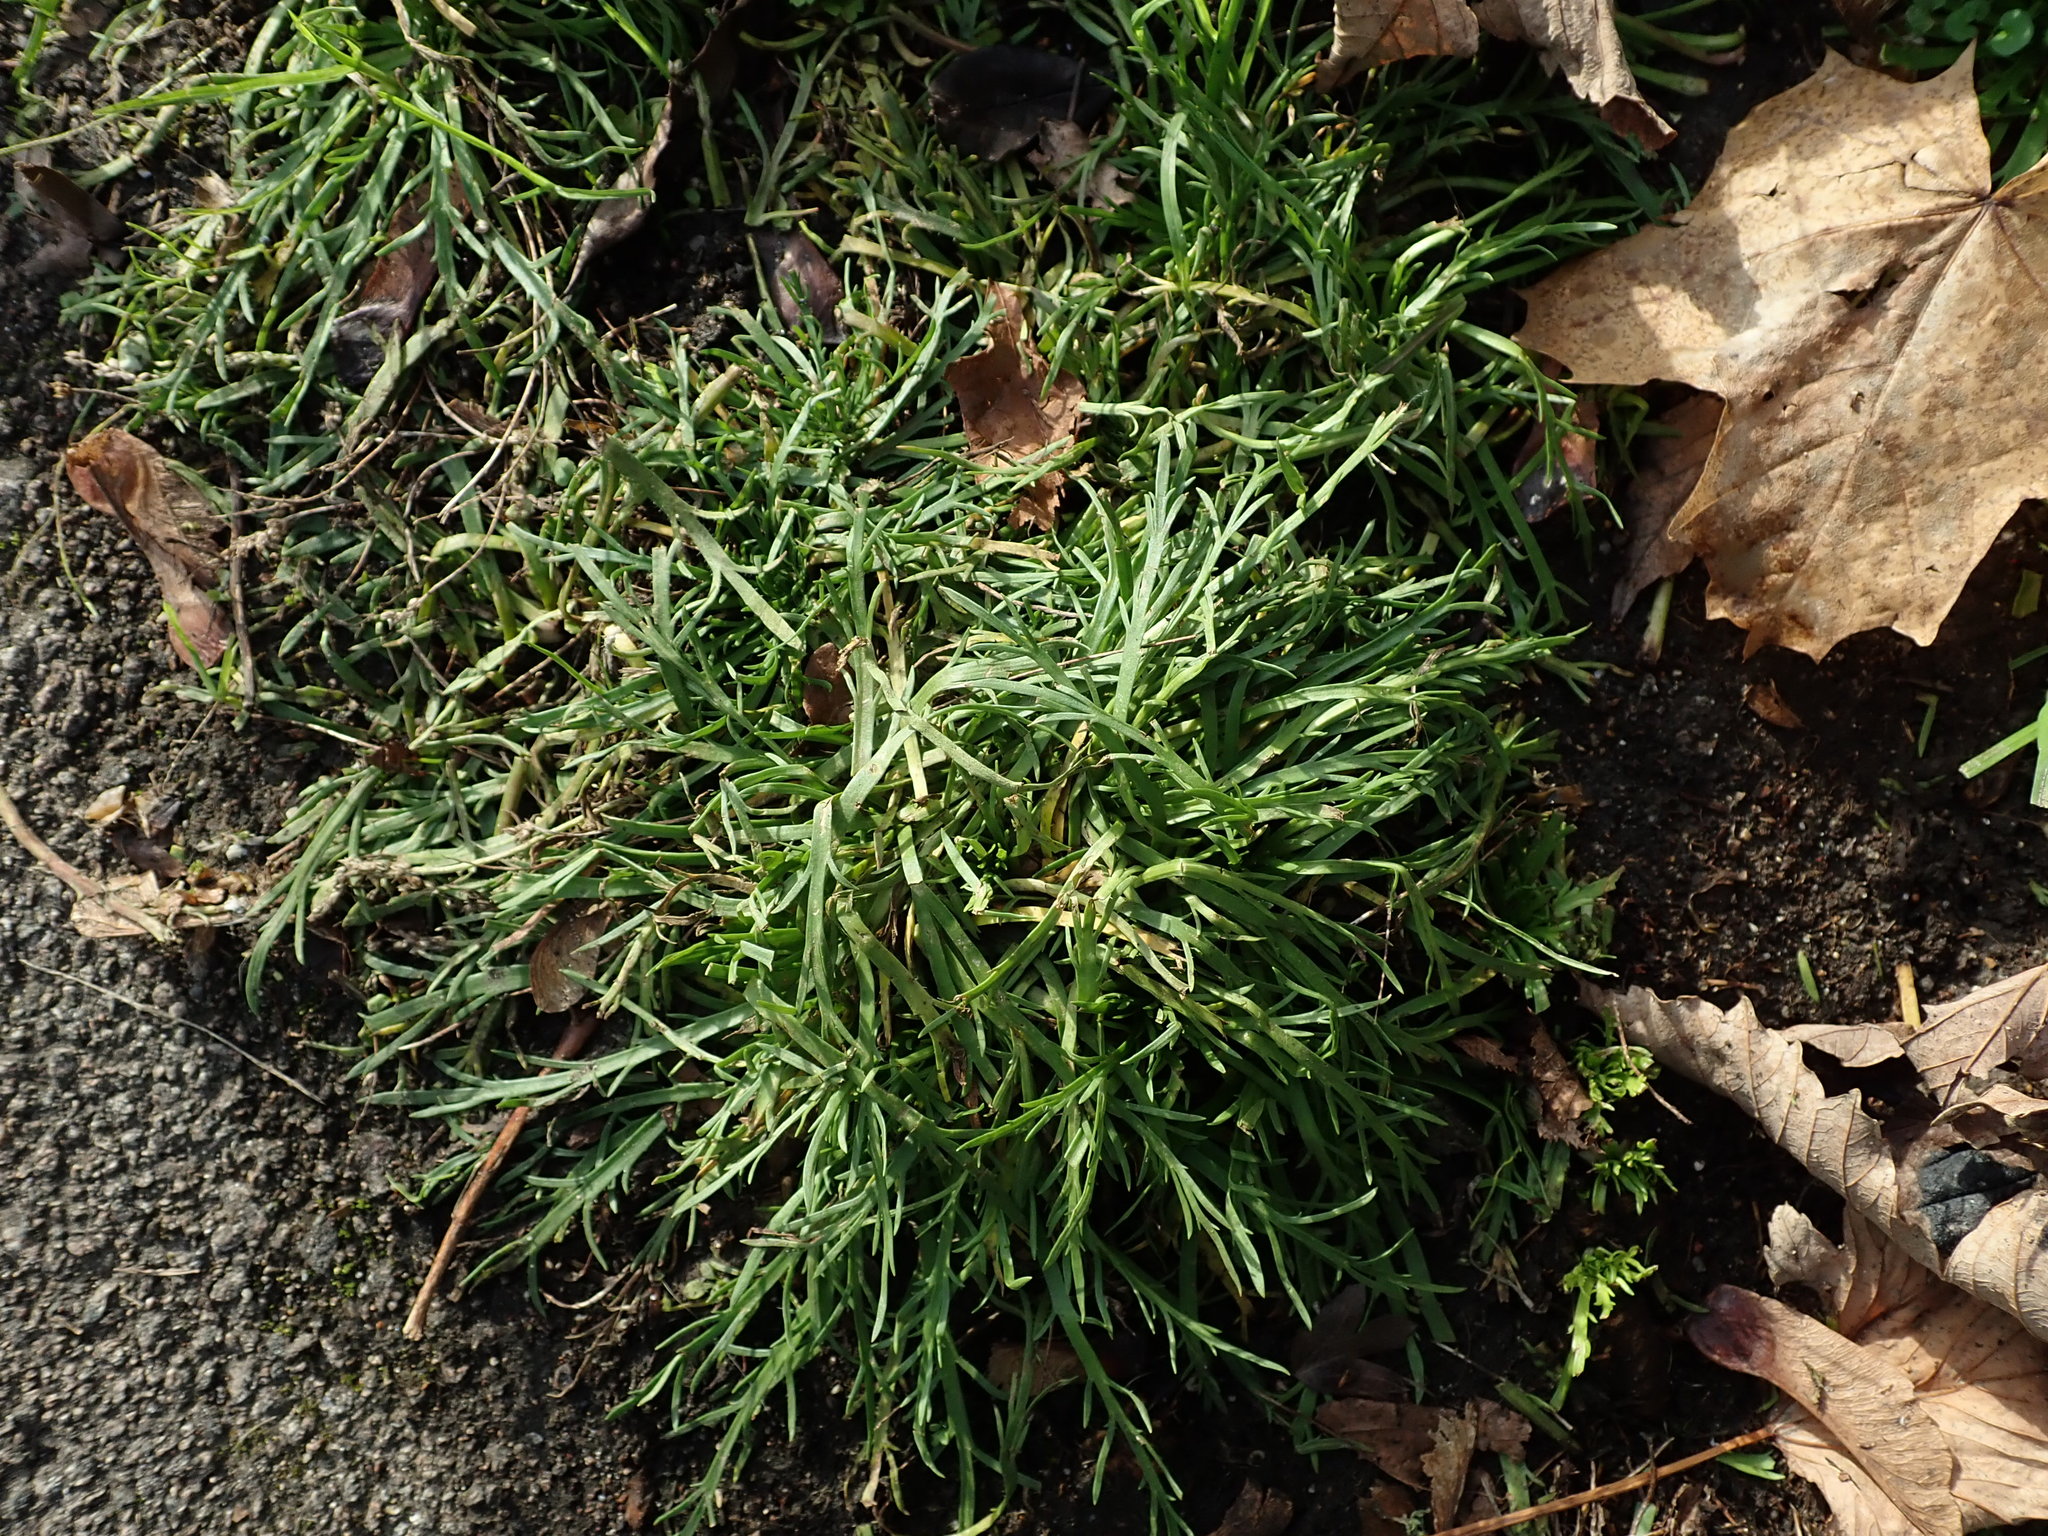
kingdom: Plantae
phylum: Tracheophyta
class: Magnoliopsida
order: Lamiales
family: Plantaginaceae
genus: Plantago
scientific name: Plantago coronopus
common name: Buck's-horn plantain
